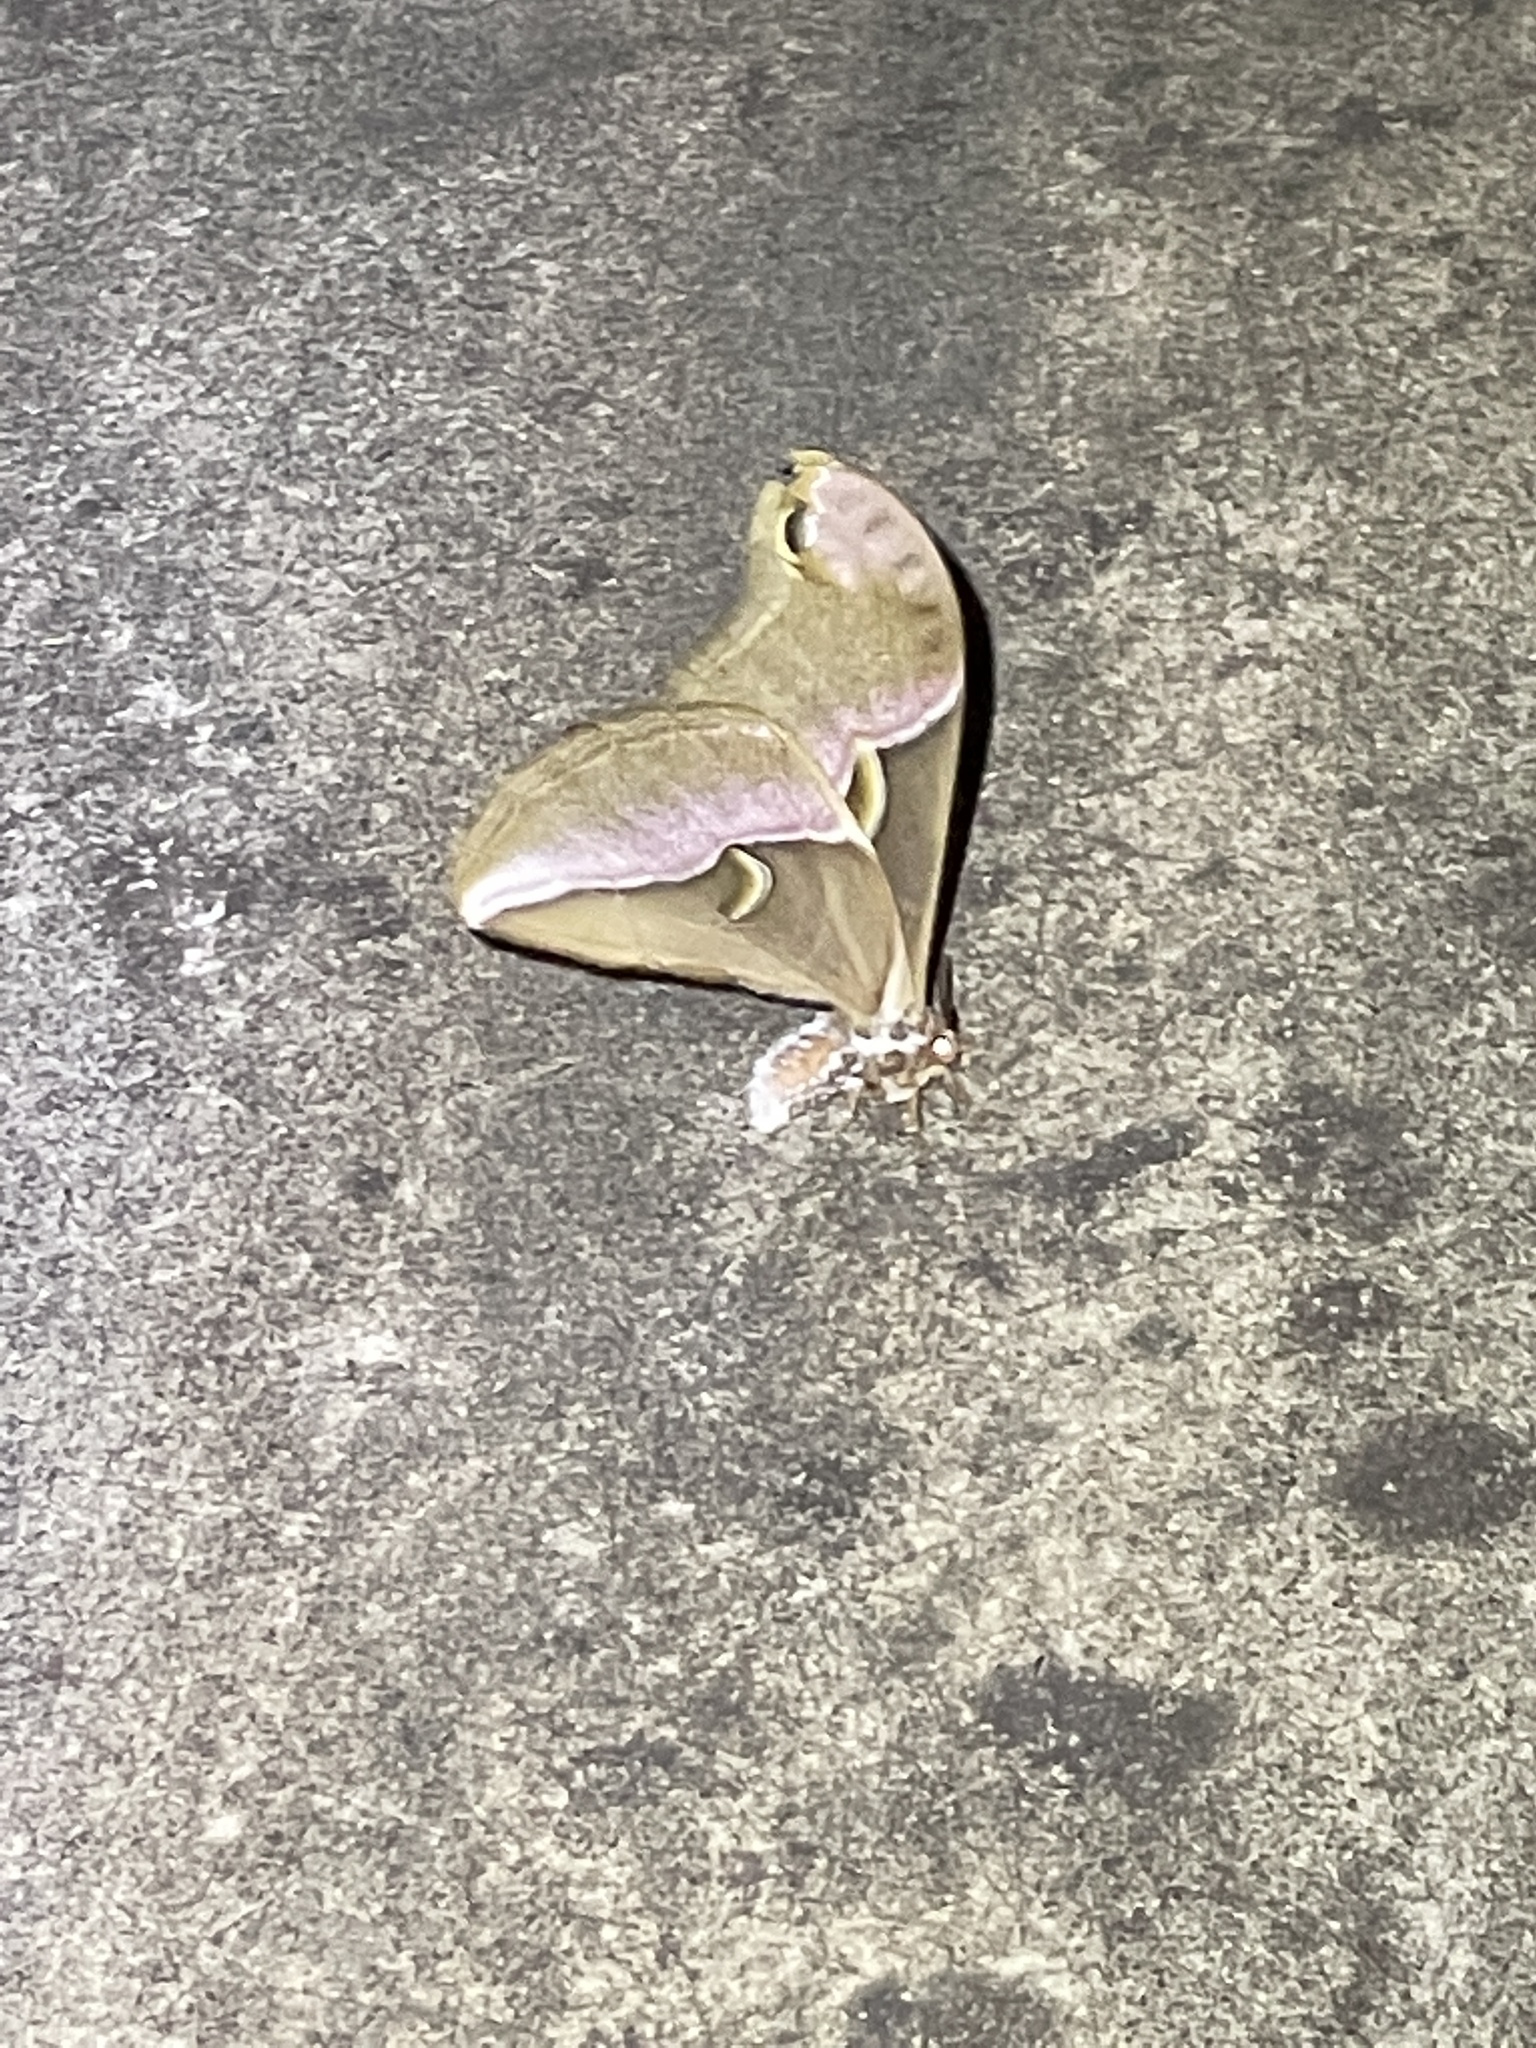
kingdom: Animalia
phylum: Arthropoda
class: Insecta
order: Lepidoptera
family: Saturniidae
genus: Samia
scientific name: Samia wangi
